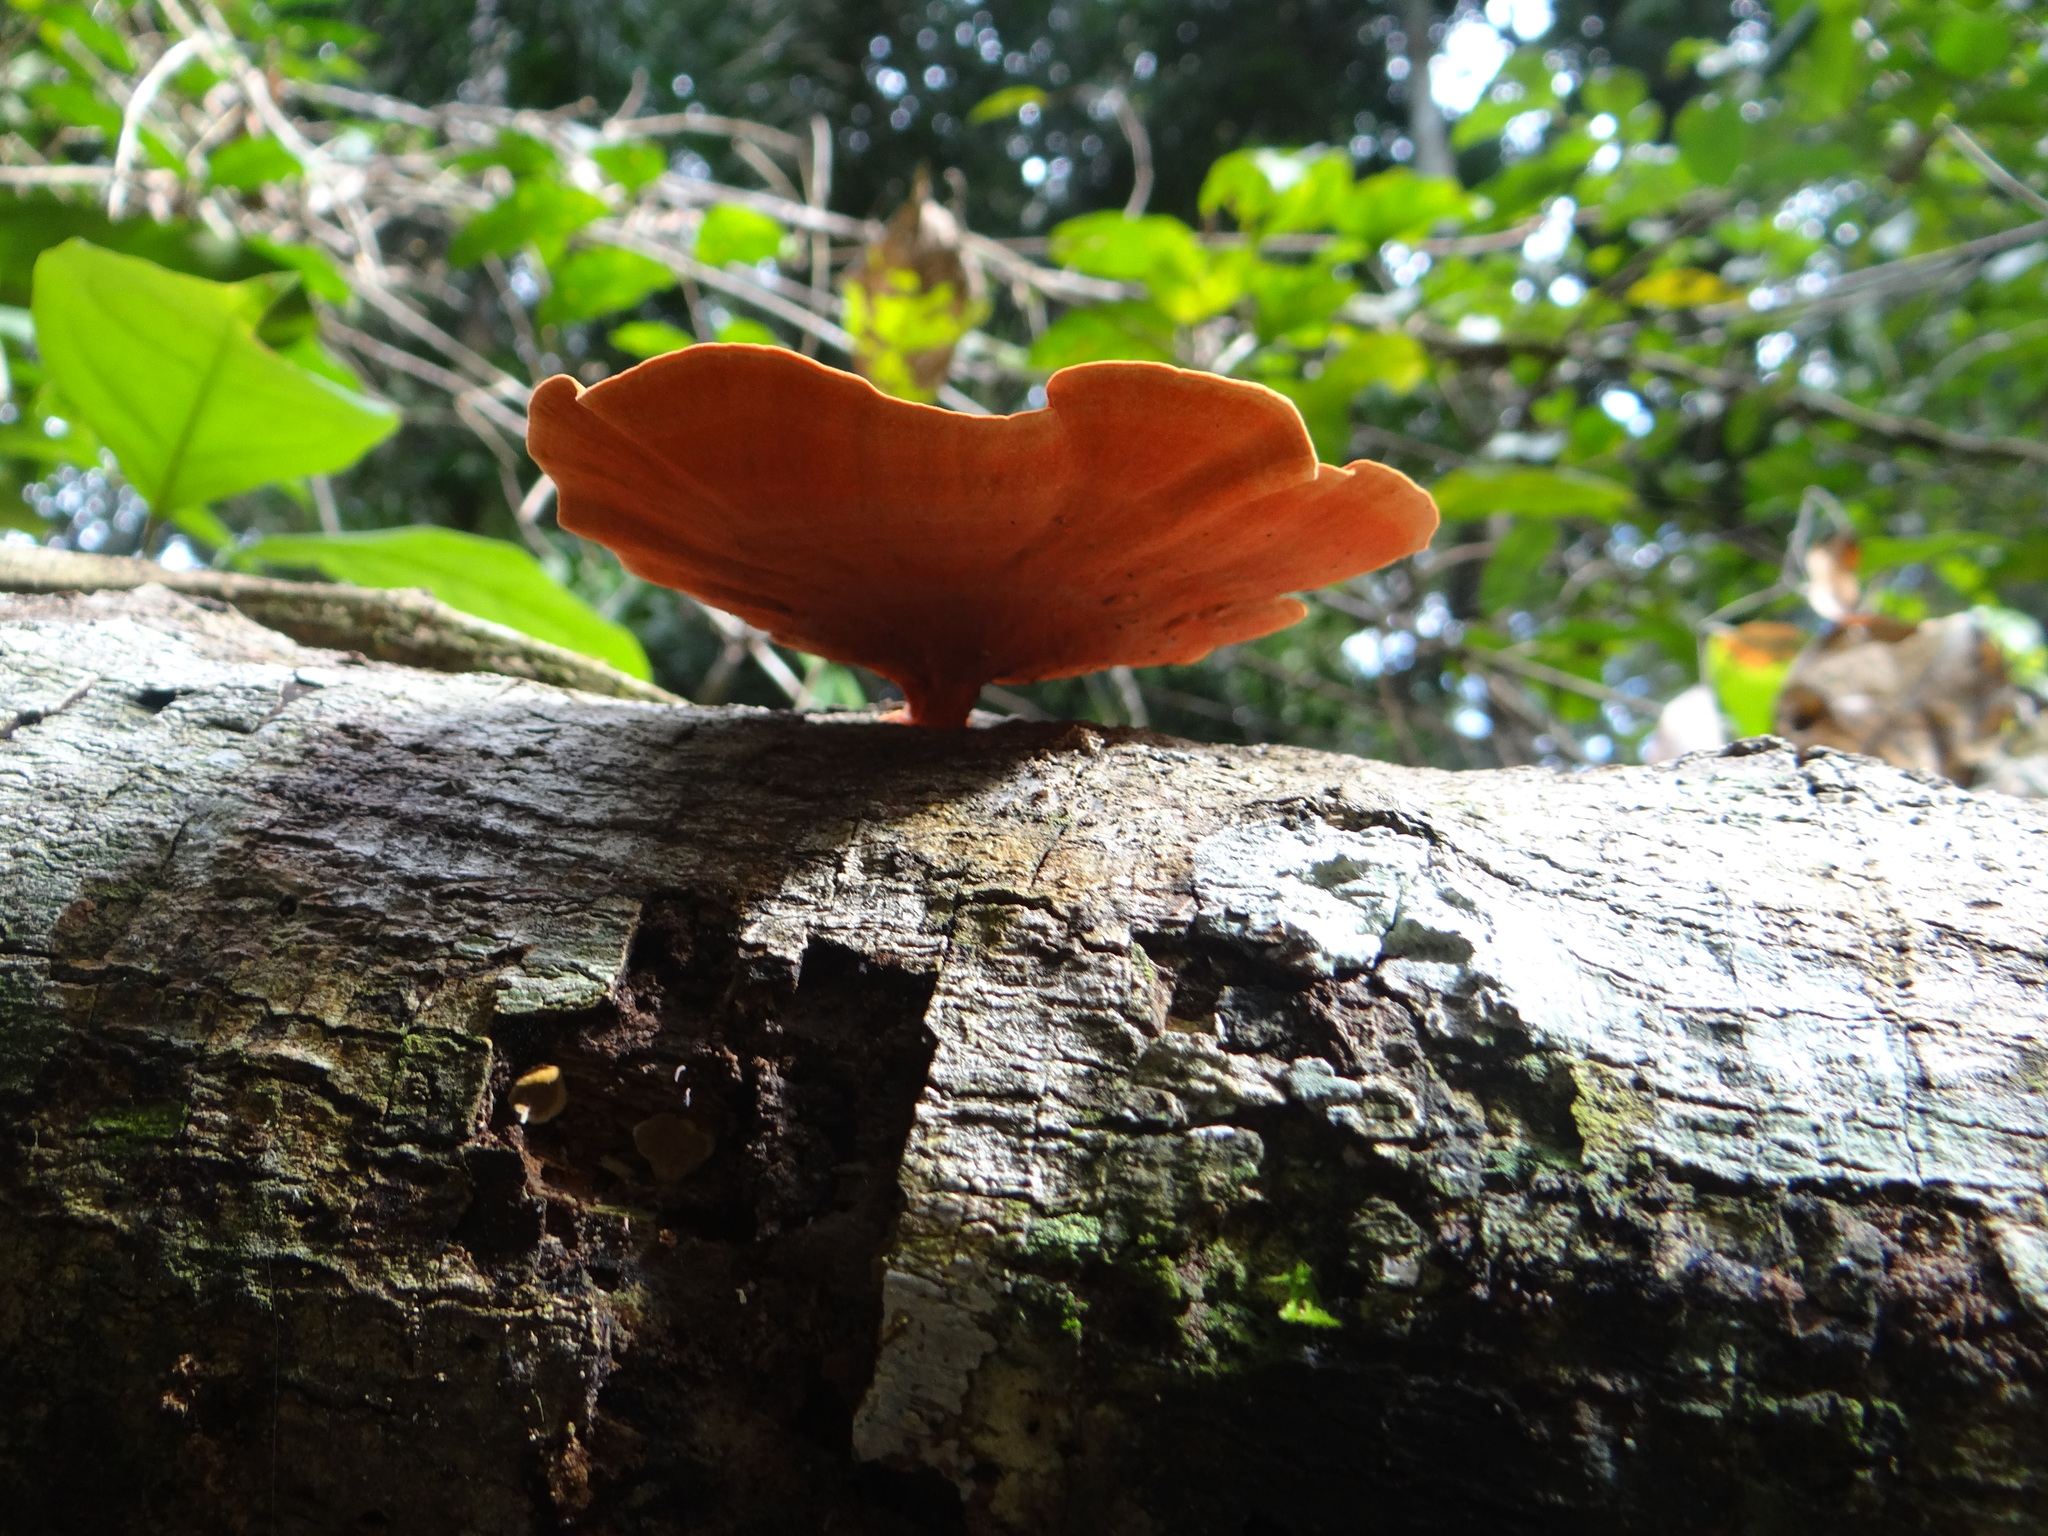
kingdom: Fungi
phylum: Basidiomycota
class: Agaricomycetes
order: Polyporales
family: Polyporaceae
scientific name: Polyporaceae
